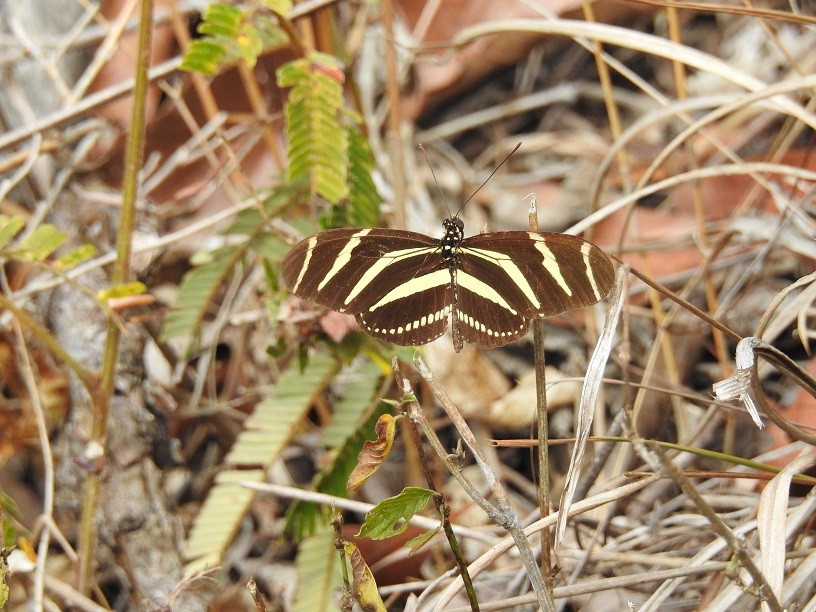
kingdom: Animalia
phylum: Arthropoda
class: Insecta
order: Lepidoptera
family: Nymphalidae
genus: Heliconius
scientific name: Heliconius charithonia
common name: Zebra long wing
